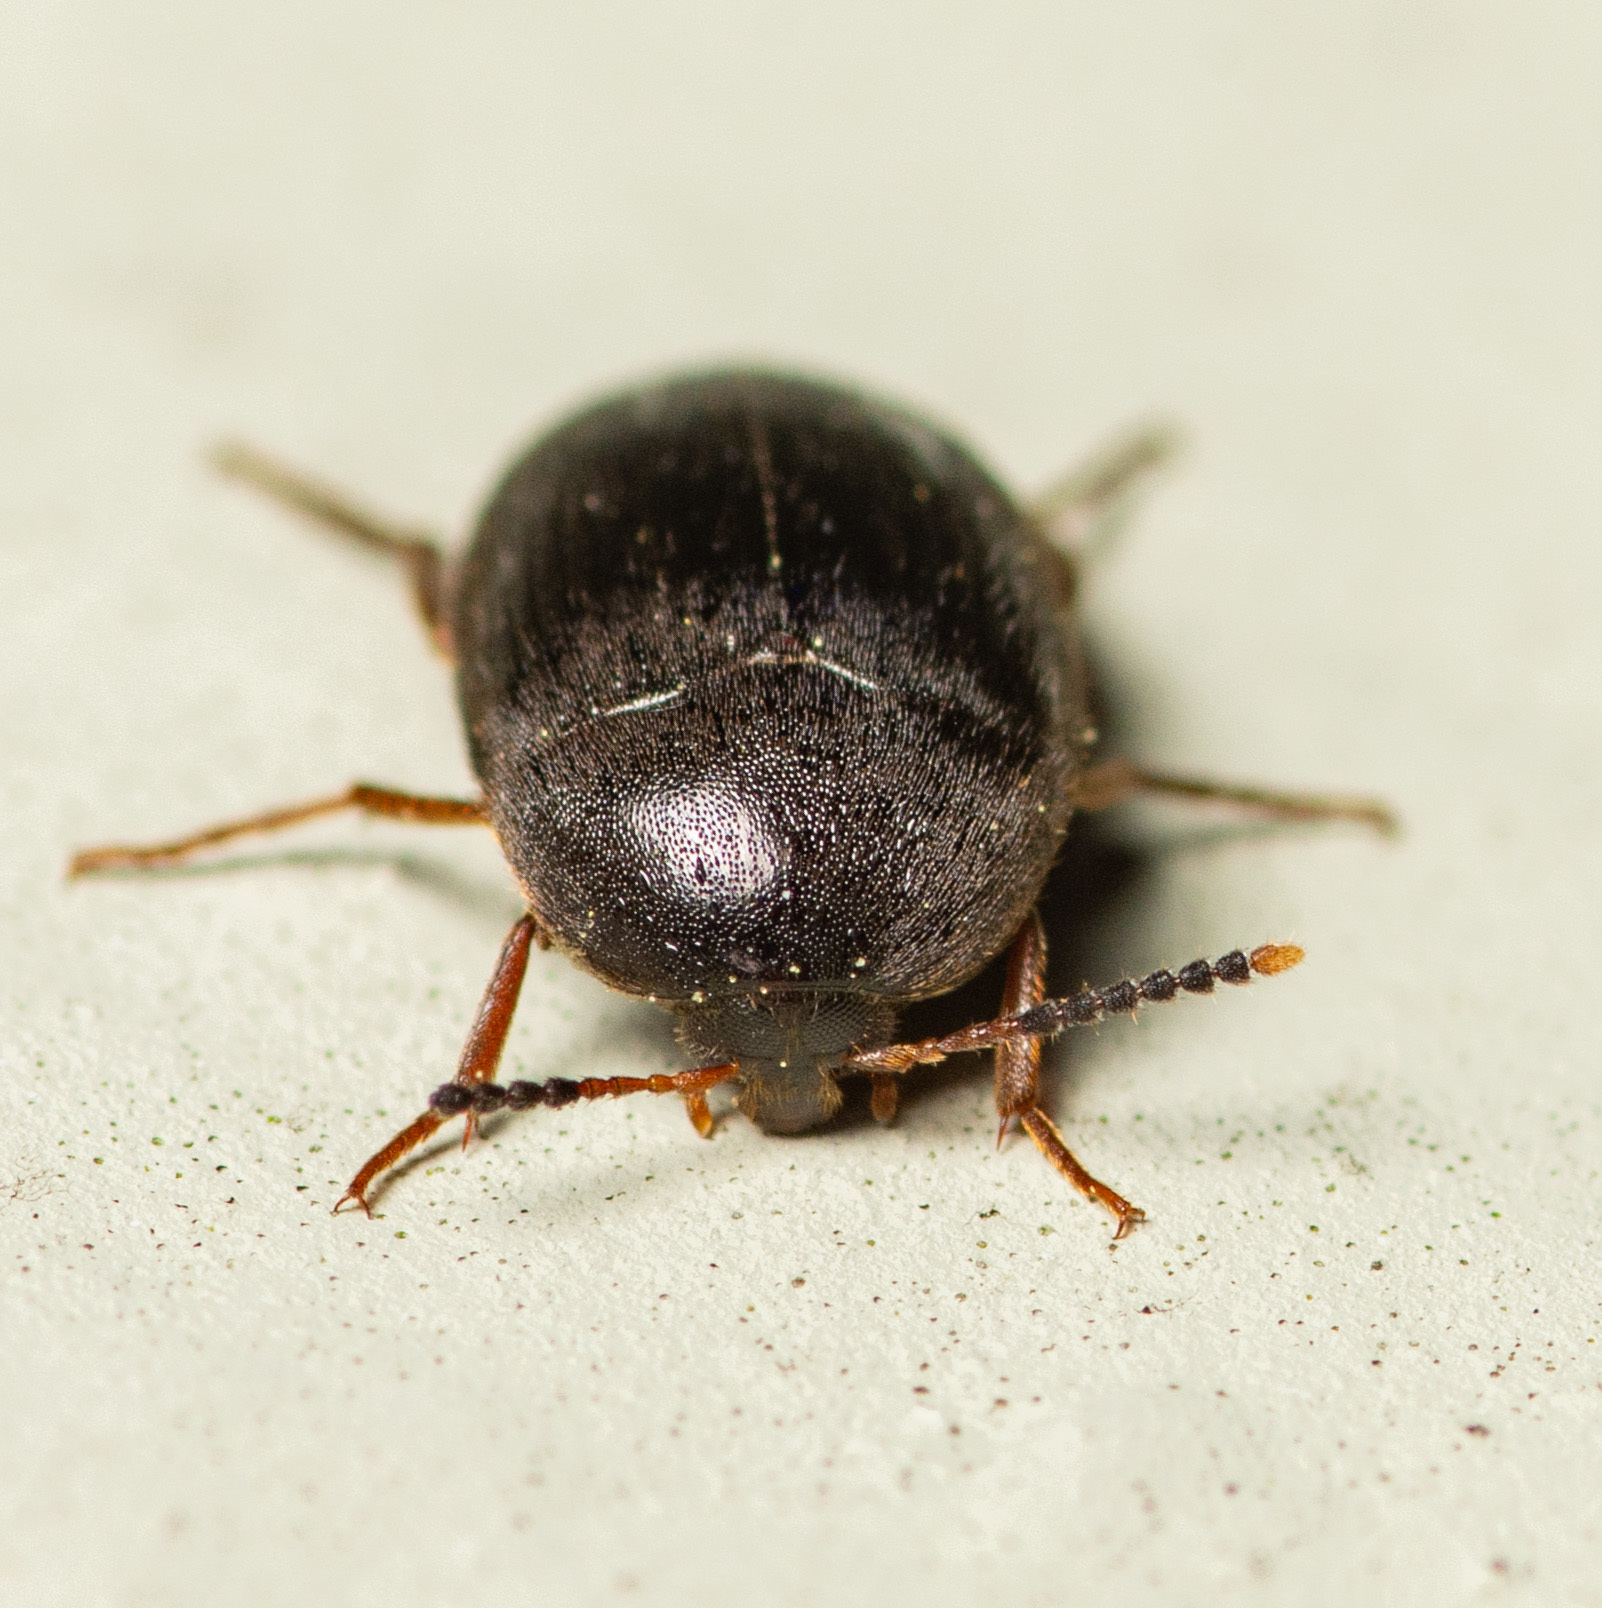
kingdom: Animalia
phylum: Arthropoda
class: Insecta
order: Coleoptera
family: Tetratomidae
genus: Eustrophopsis
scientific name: Eustrophopsis bicolor
